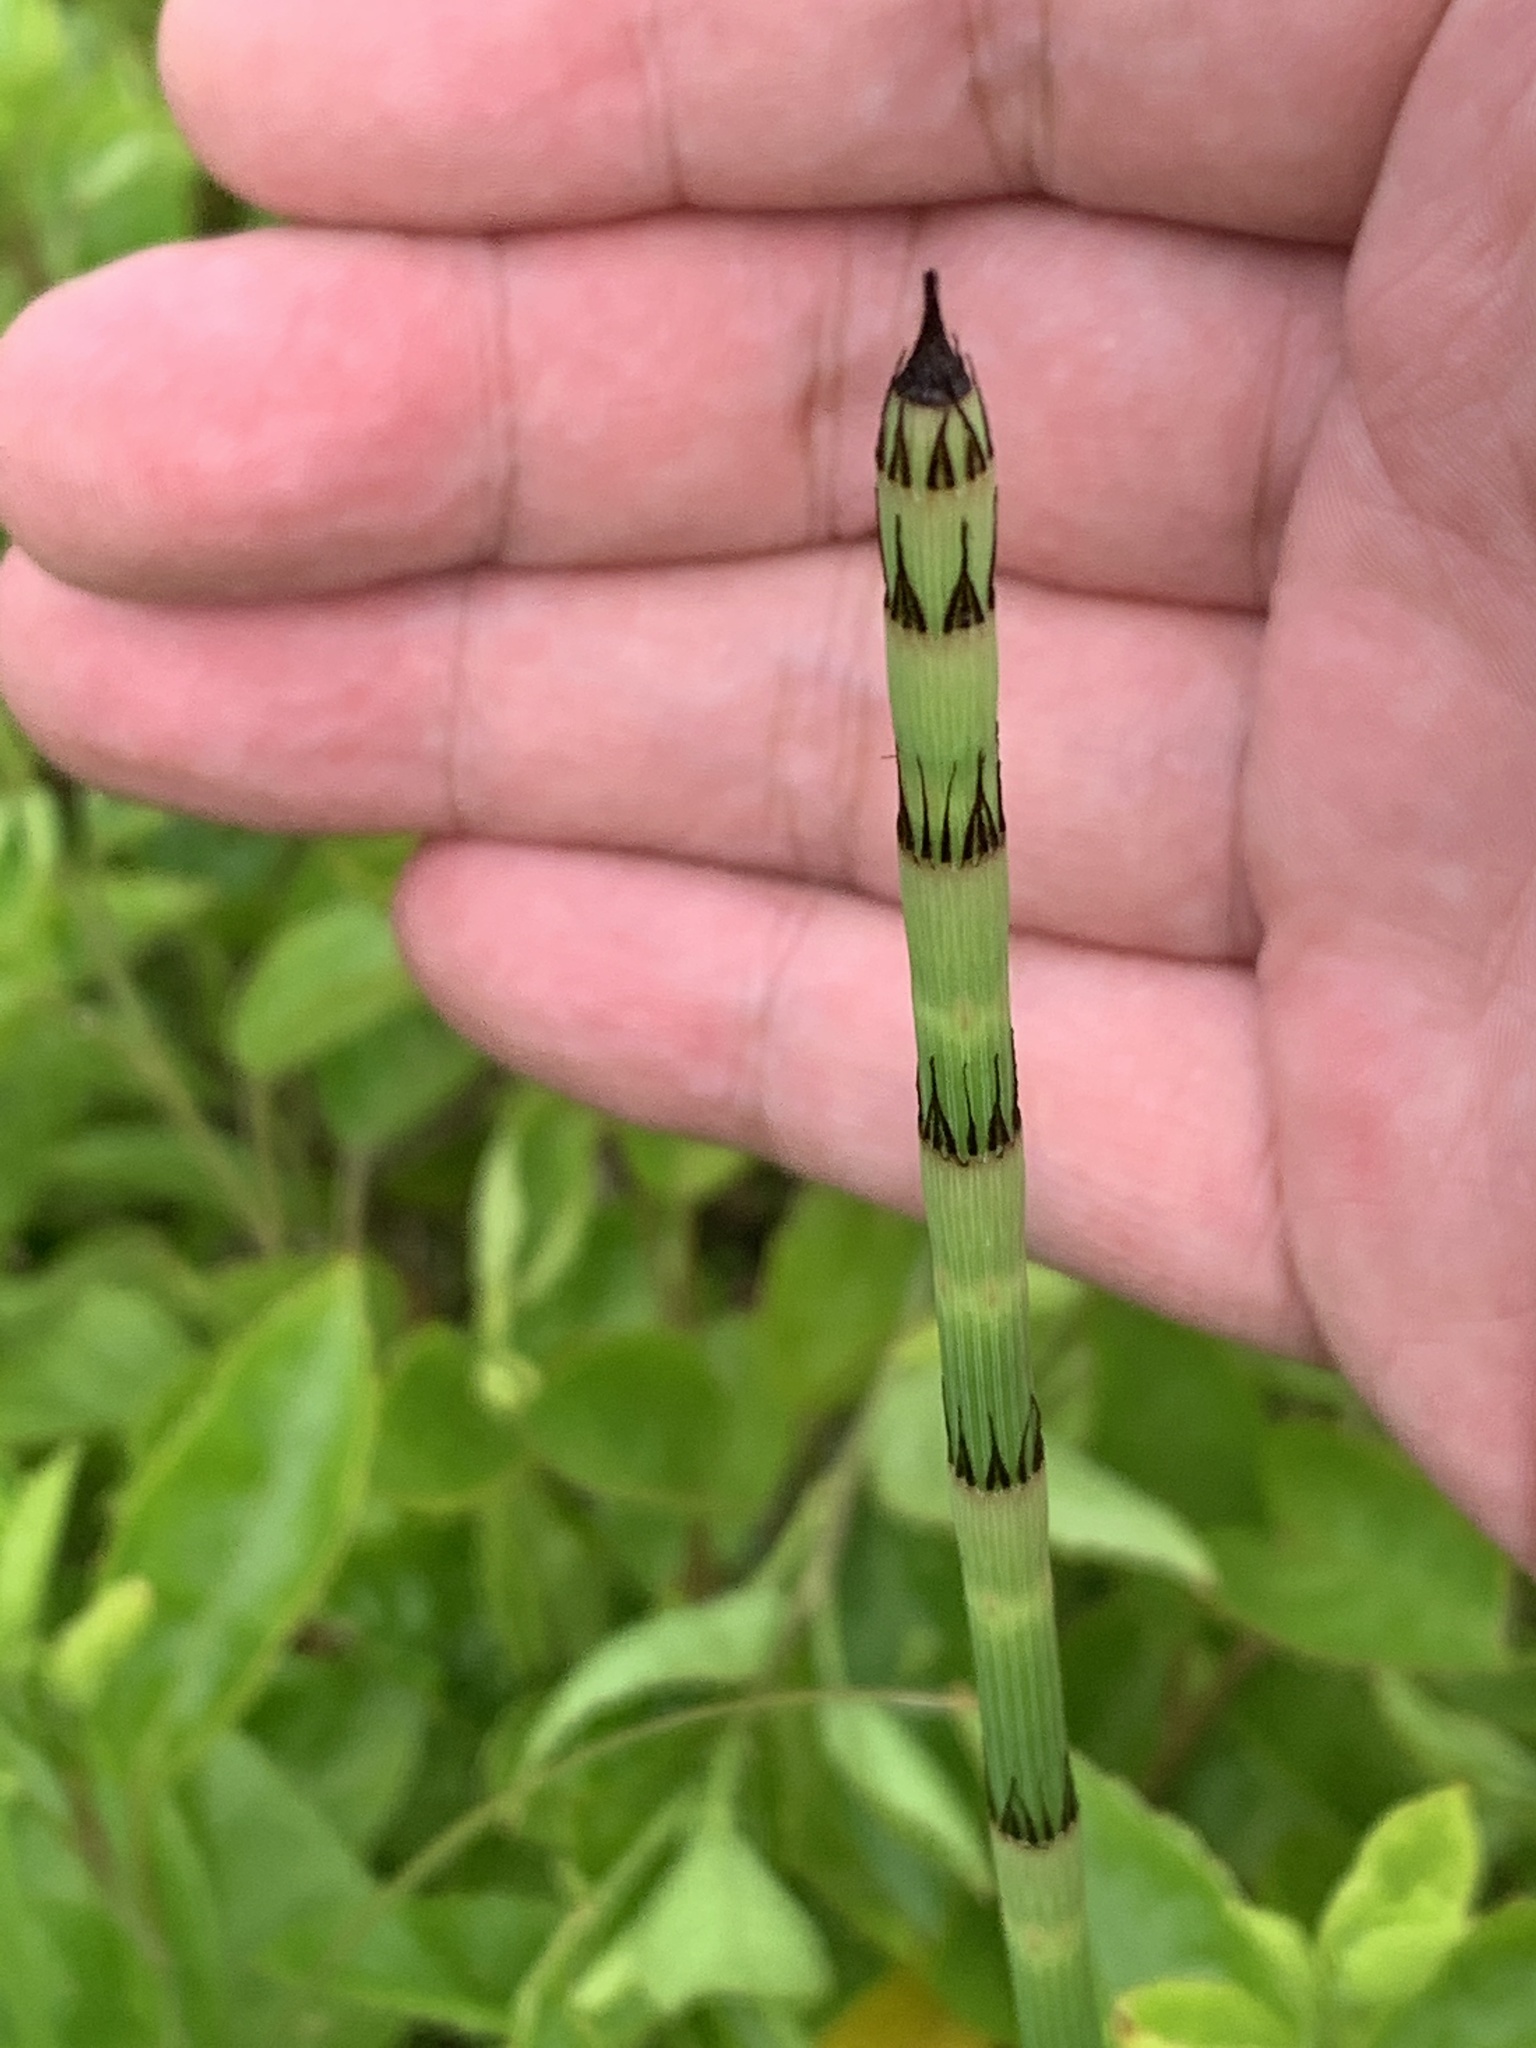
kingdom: Plantae
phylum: Tracheophyta
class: Polypodiopsida
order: Equisetales
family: Equisetaceae
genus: Equisetum
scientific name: Equisetum ramosissimum
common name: Branched horsetail
